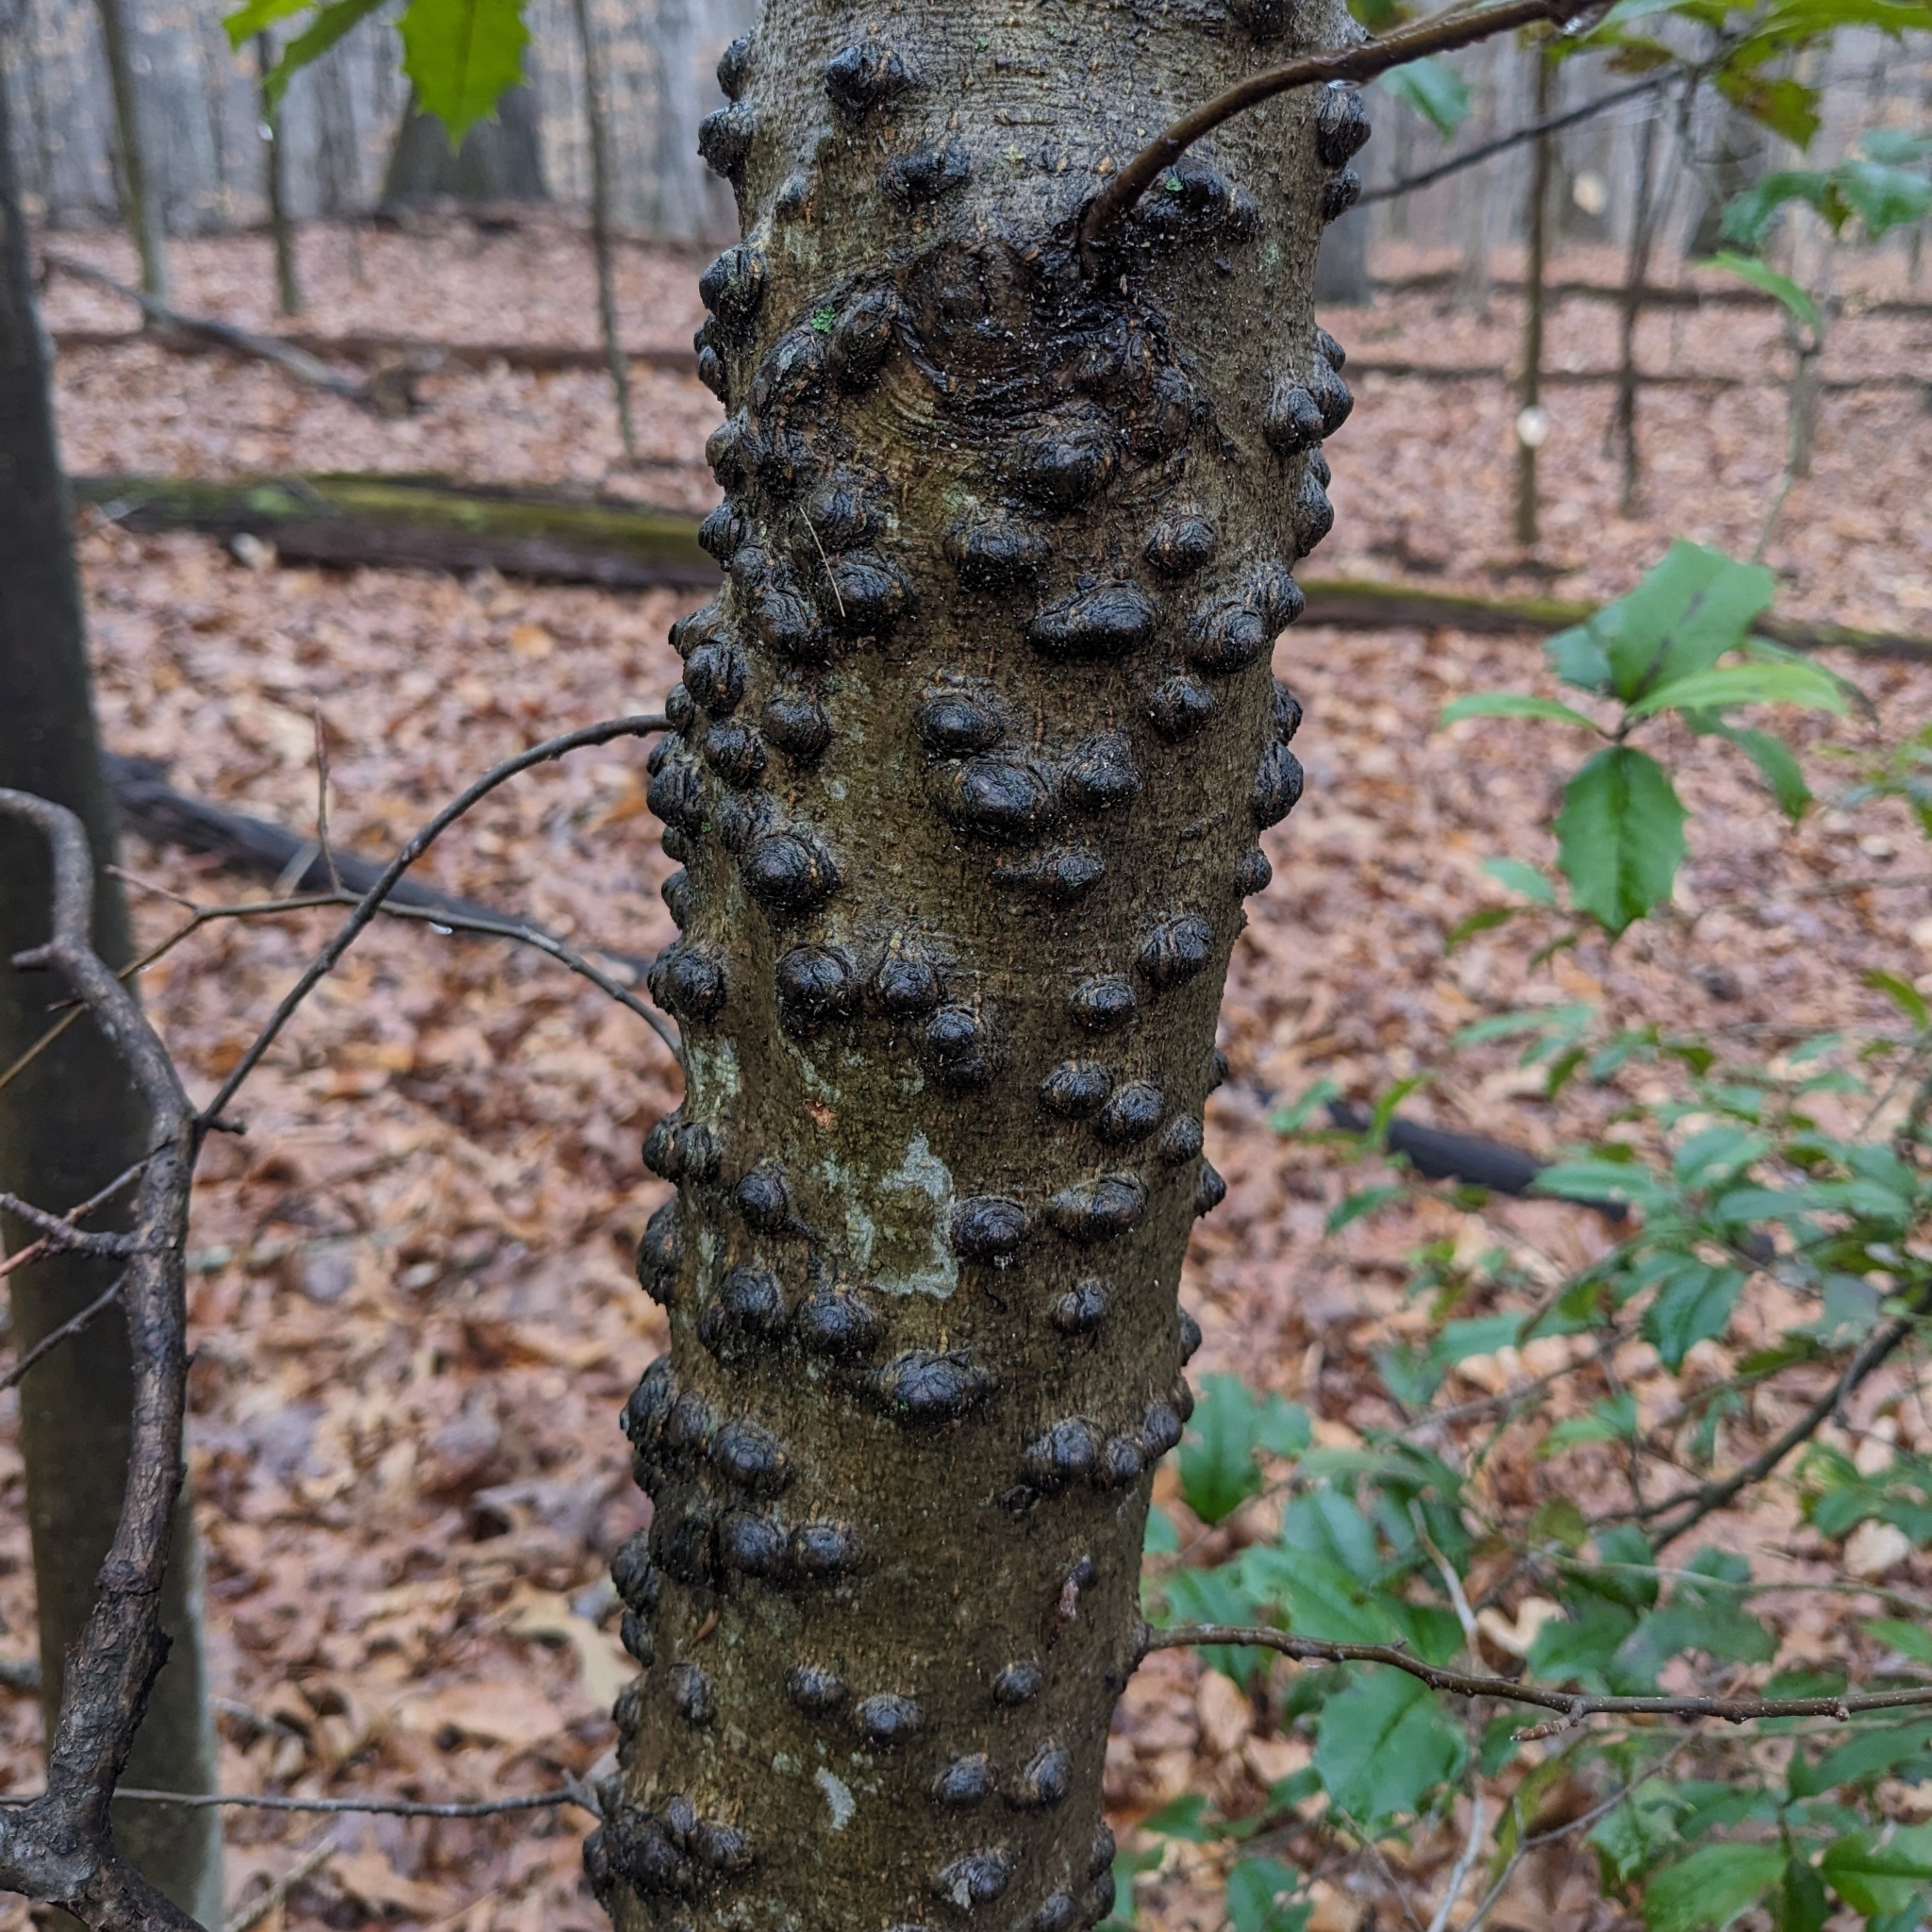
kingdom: Fungi
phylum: Ascomycota
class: Sordariomycetes
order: Hypocreales
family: Nectriaceae
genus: Neonectria
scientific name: Neonectria faginata
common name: Beech bark canker
